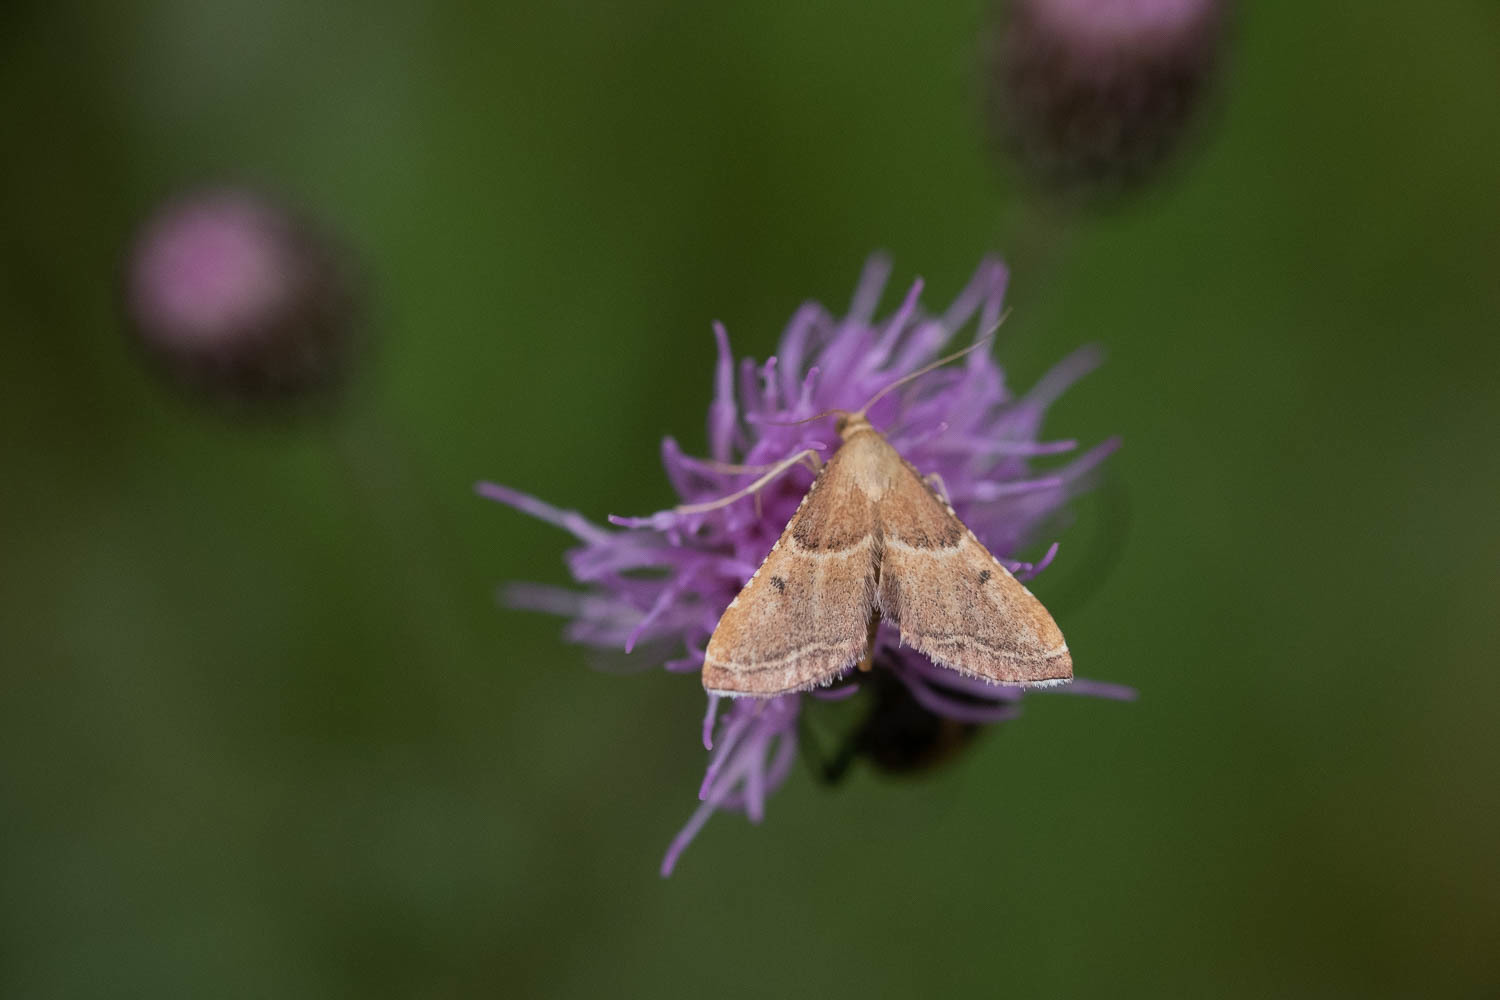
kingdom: Animalia
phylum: Arthropoda
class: Insecta
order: Lepidoptera
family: Pyralidae
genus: Endotricha
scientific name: Endotricha flammealis
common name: Rosy tabby
